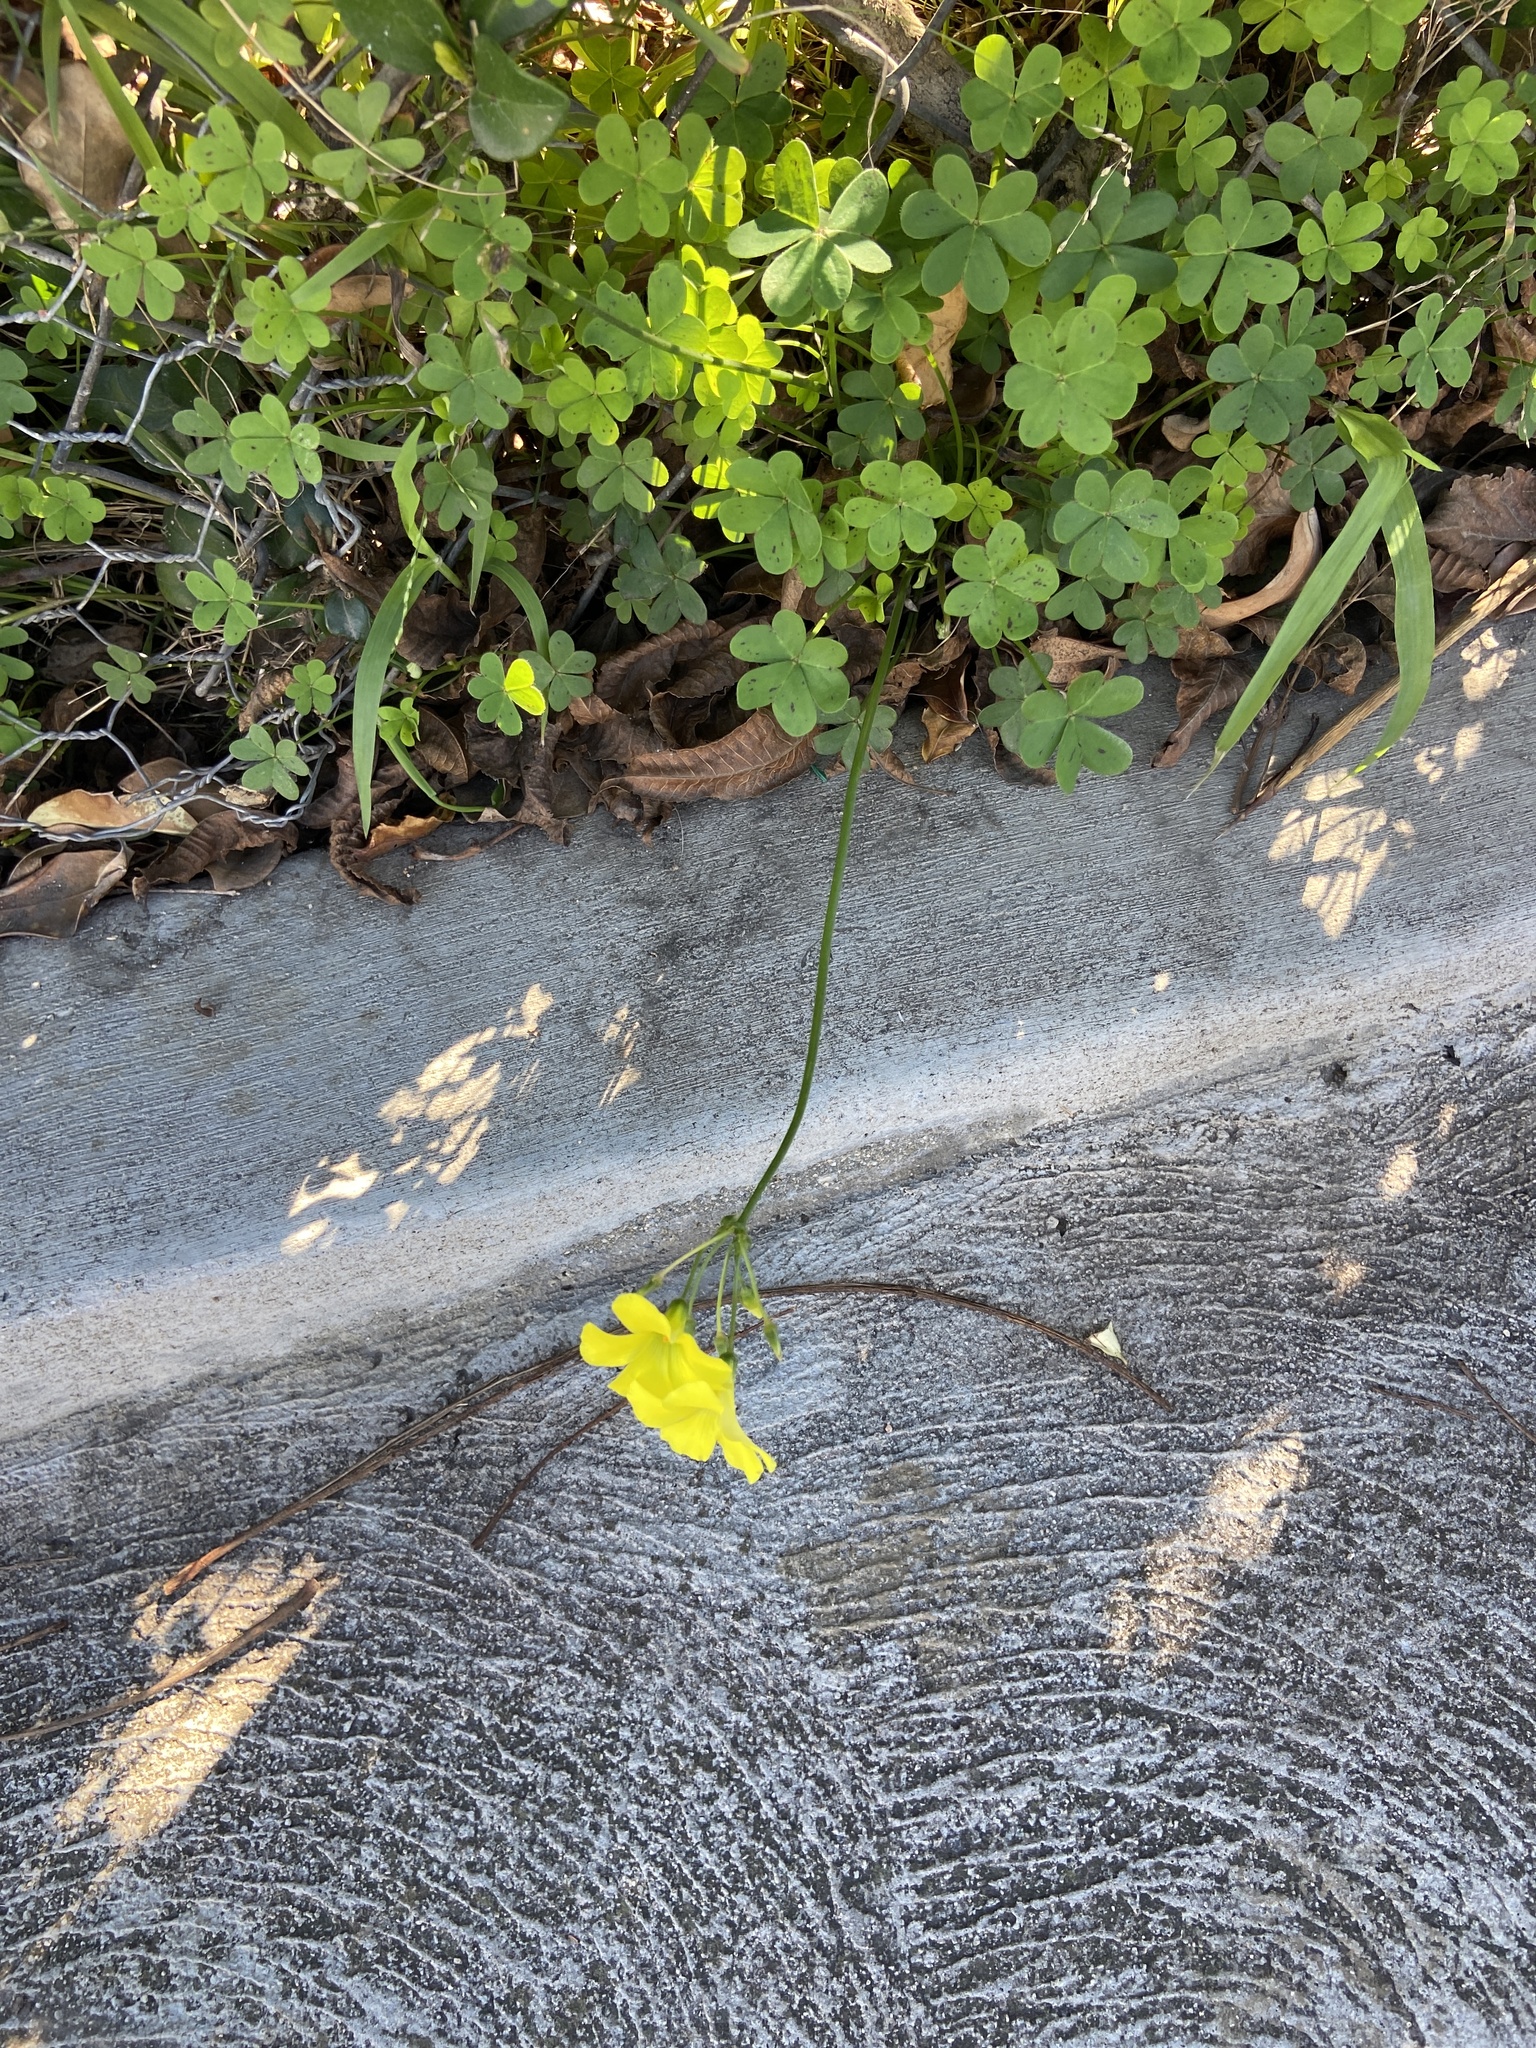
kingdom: Plantae
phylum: Tracheophyta
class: Magnoliopsida
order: Oxalidales
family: Oxalidaceae
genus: Oxalis
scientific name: Oxalis pes-caprae
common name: Bermuda-buttercup
